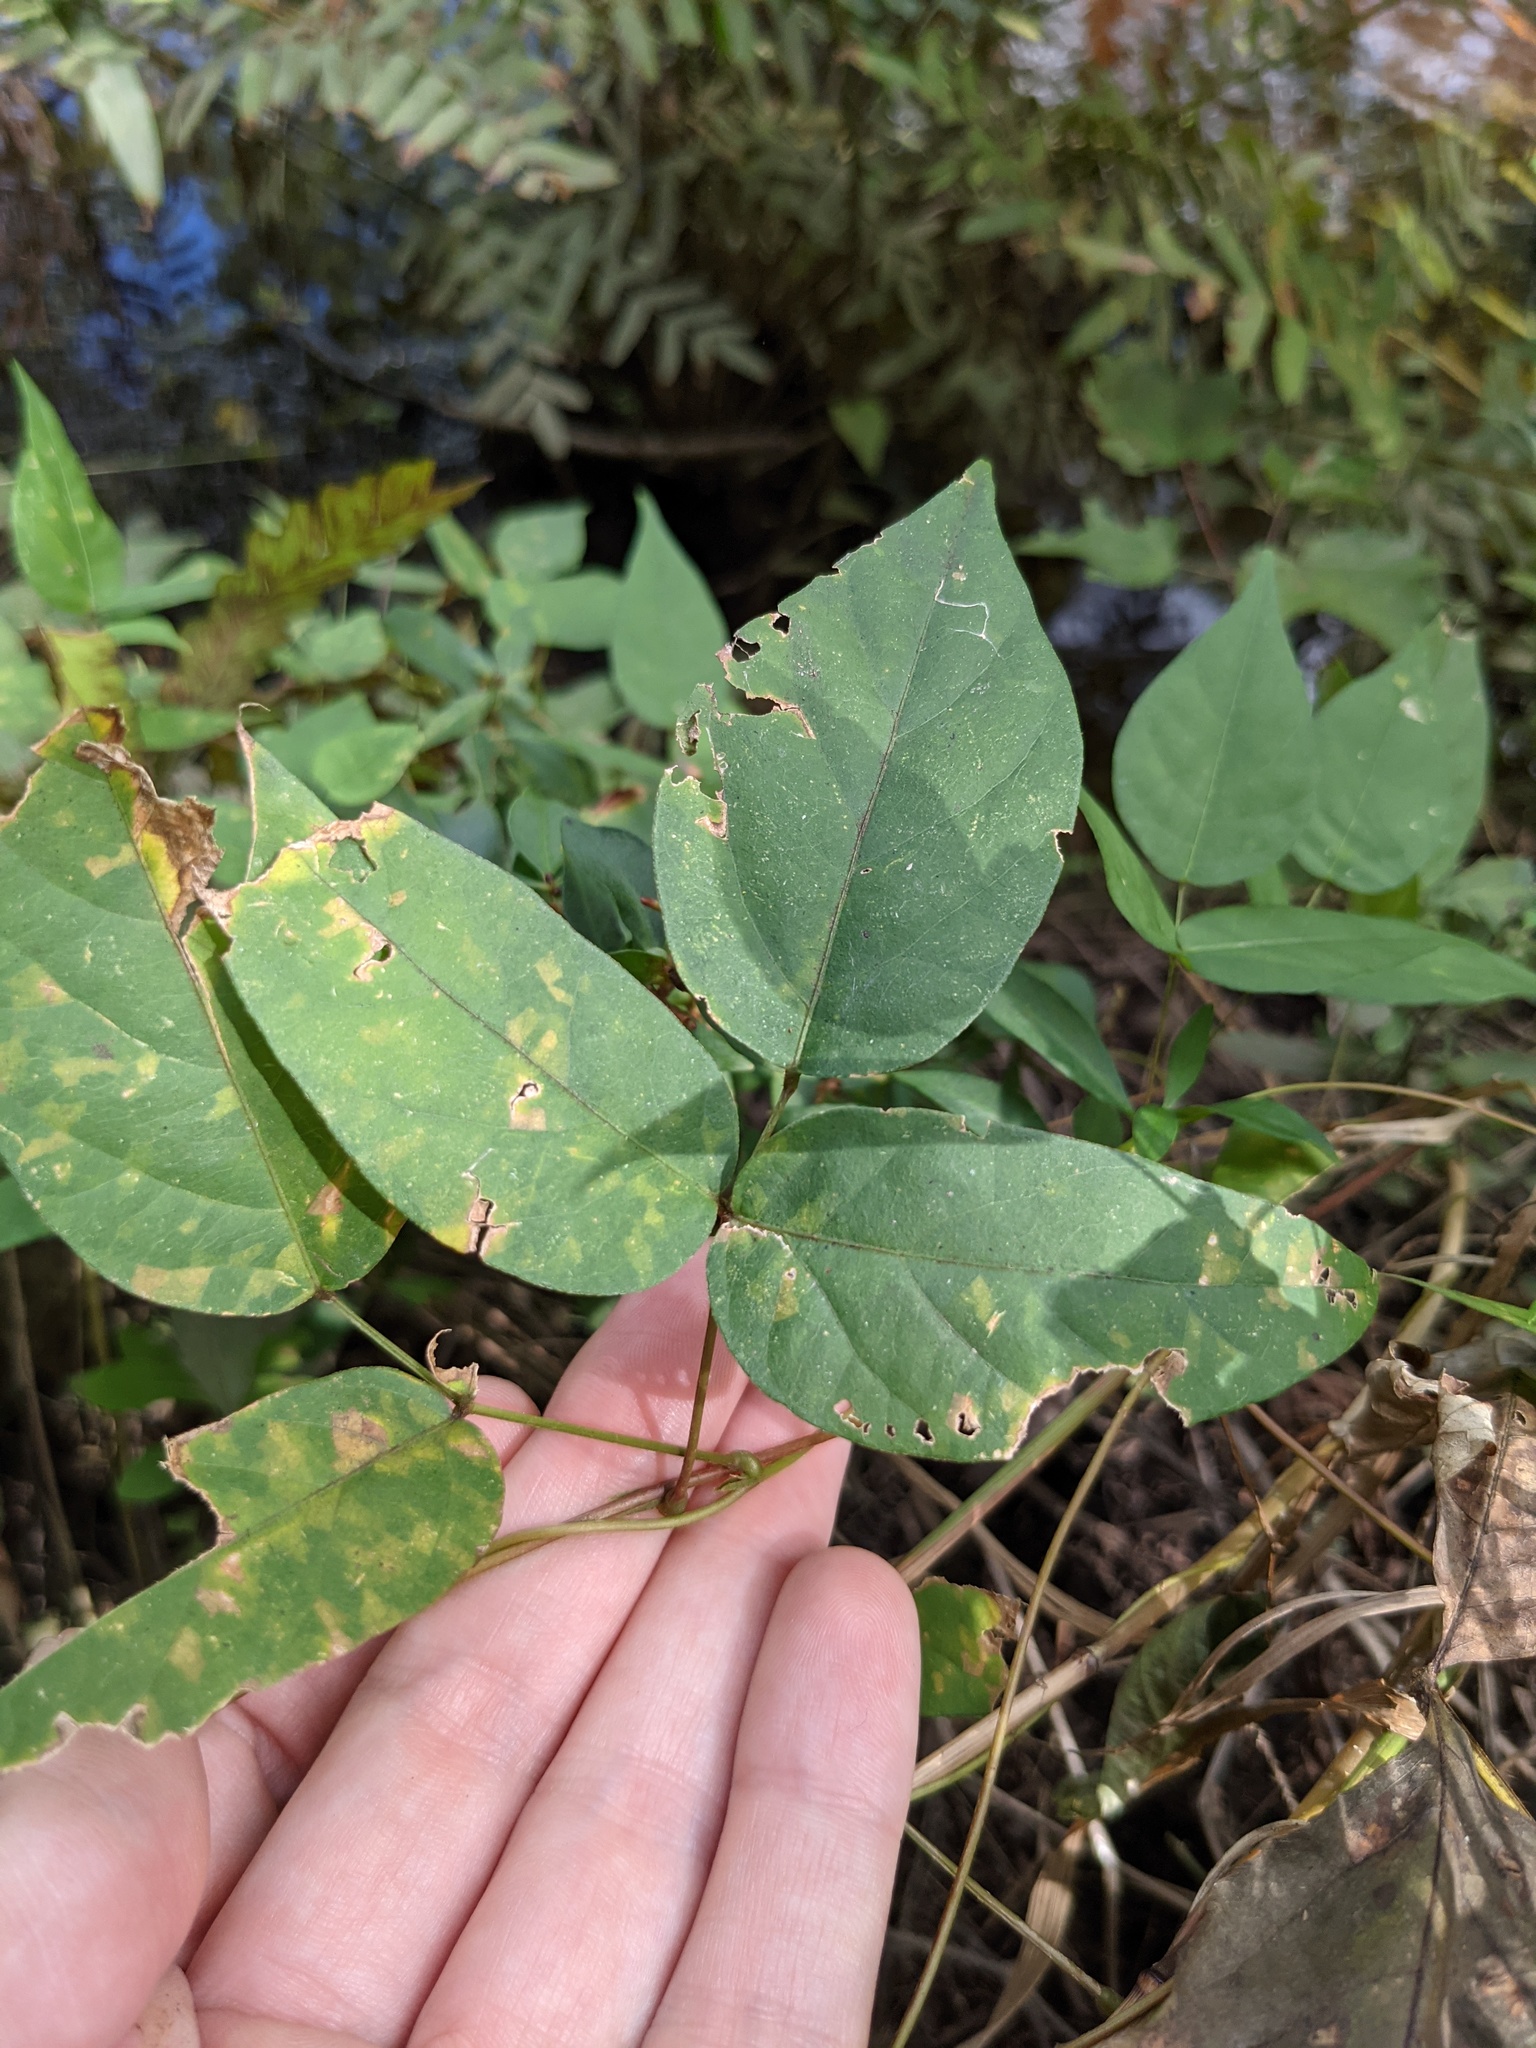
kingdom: Plantae
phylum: Tracheophyta
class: Magnoliopsida
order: Fabales
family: Fabaceae
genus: Apios
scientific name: Apios americana
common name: American potato-bean
